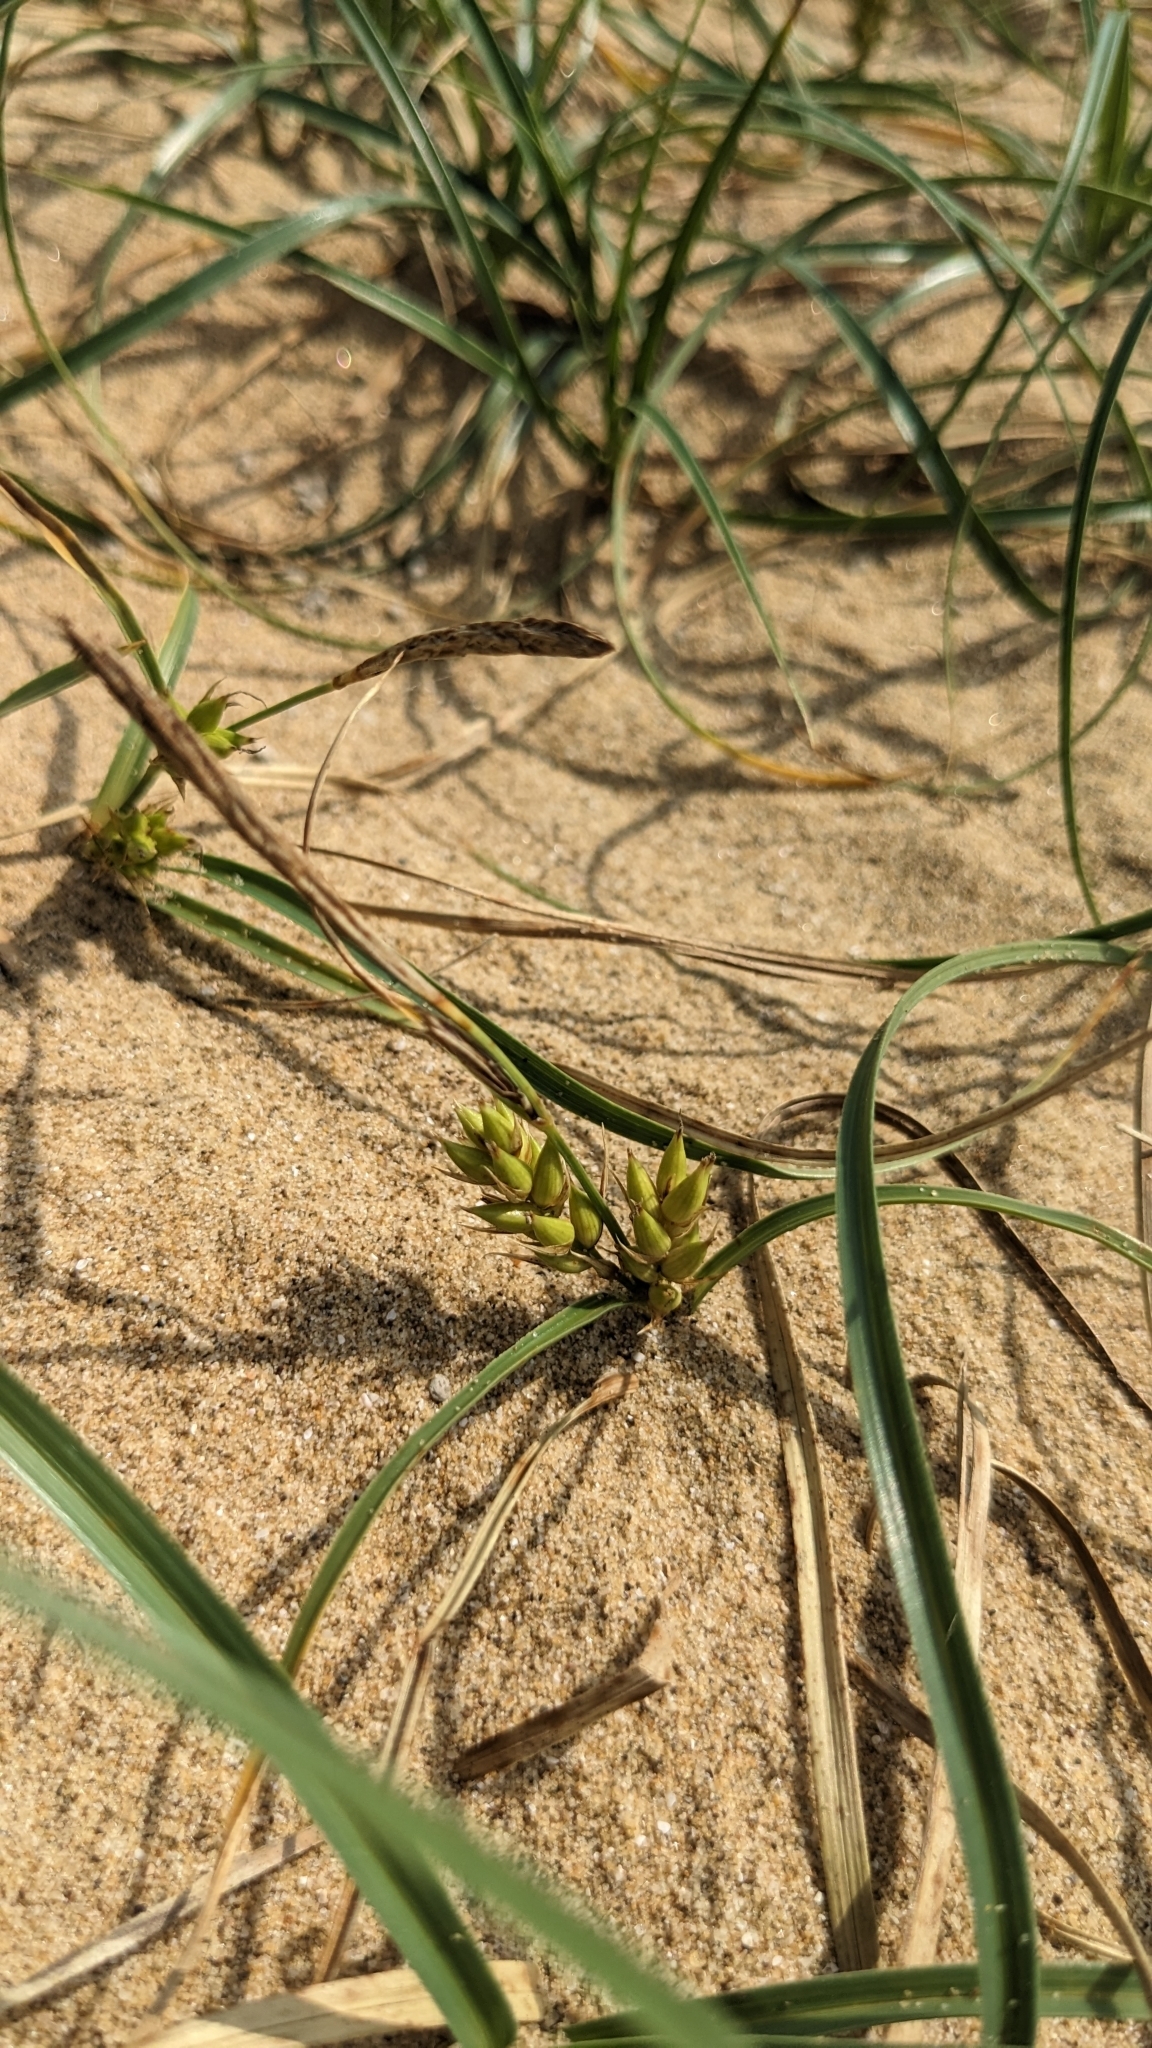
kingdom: Plantae
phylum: Tracheophyta
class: Liliopsida
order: Poales
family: Cyperaceae
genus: Carex
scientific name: Carex pumila
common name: Dwarf sedge
